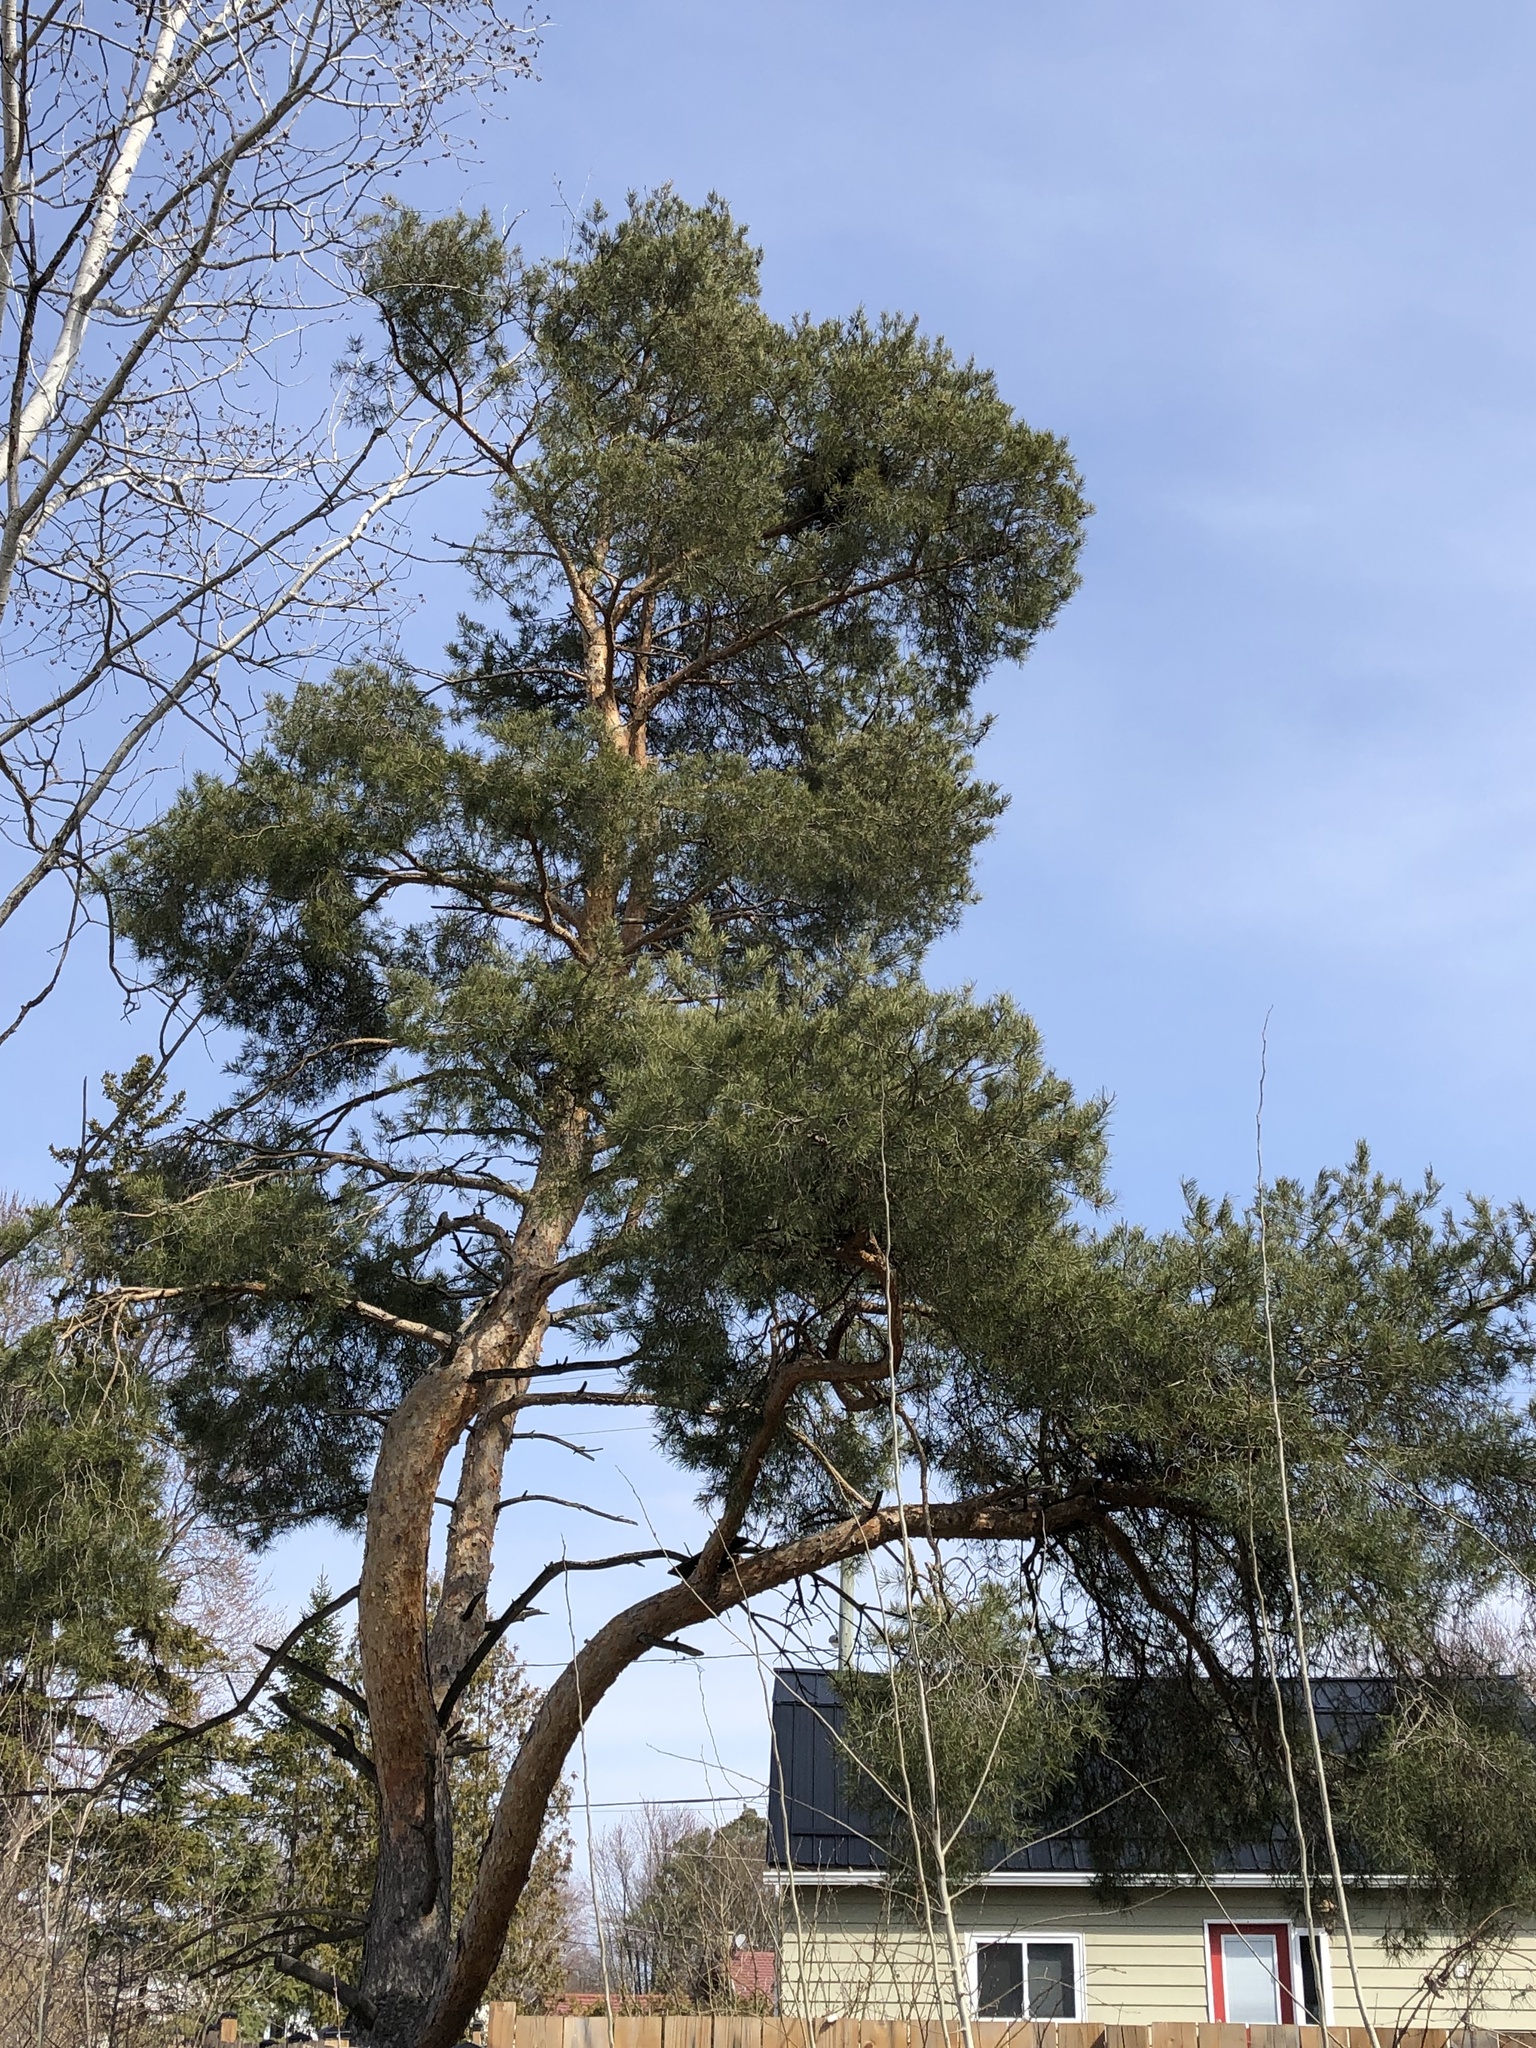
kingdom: Plantae
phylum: Tracheophyta
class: Pinopsida
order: Pinales
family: Pinaceae
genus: Pinus
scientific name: Pinus sylvestris
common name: Scots pine
